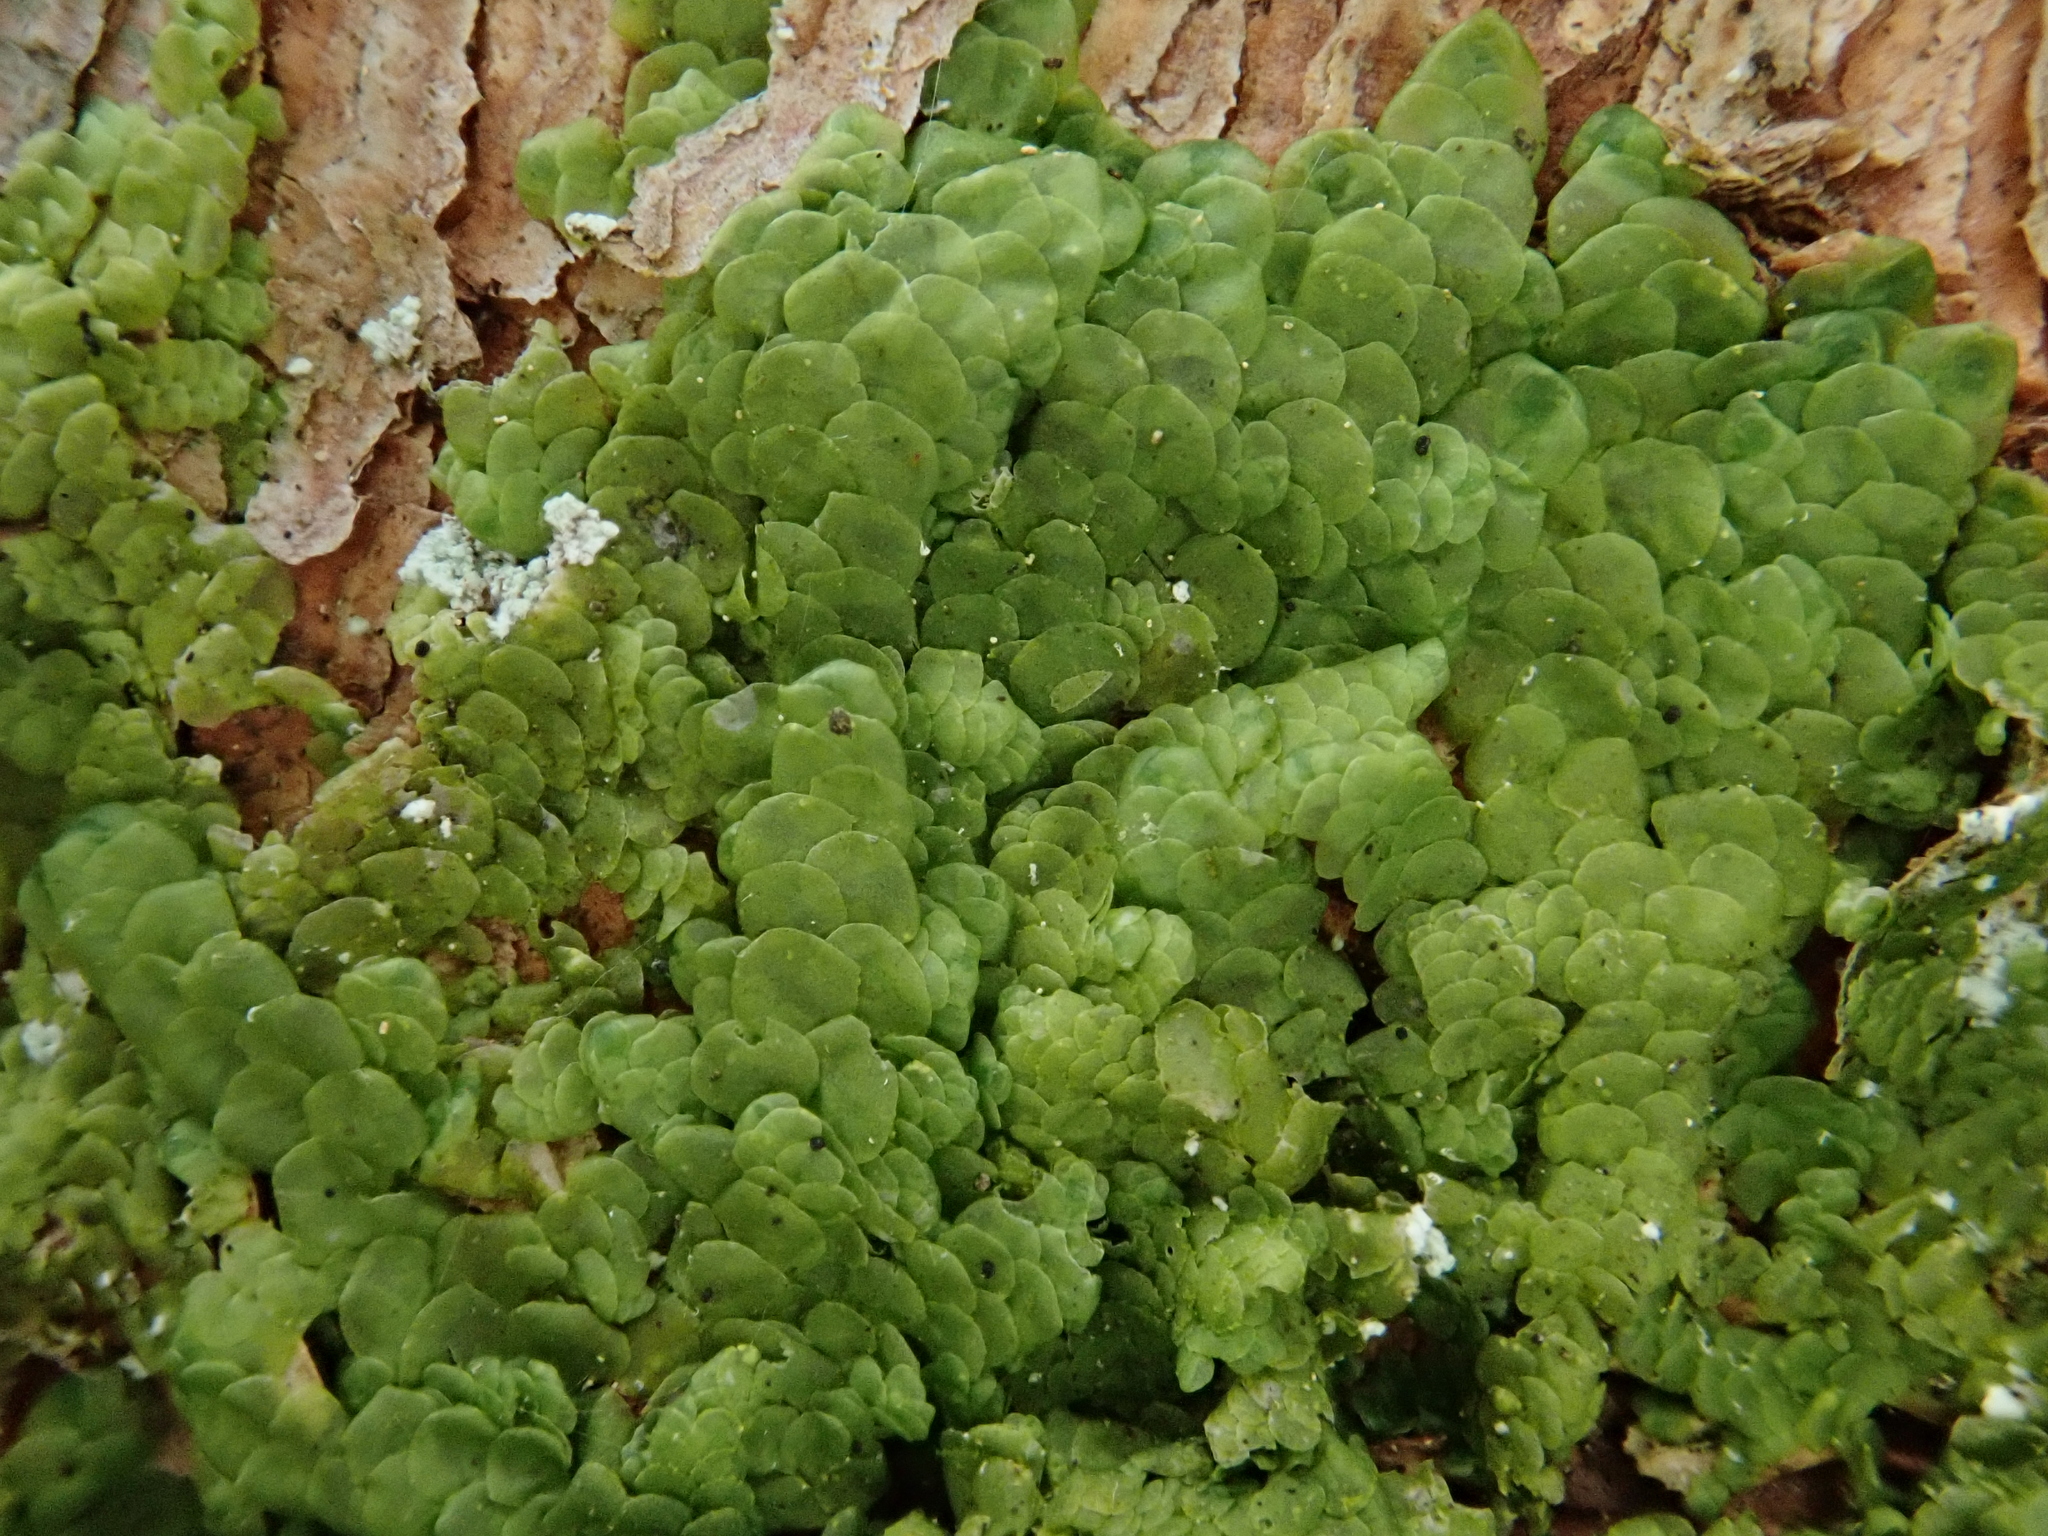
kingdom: Plantae
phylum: Marchantiophyta
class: Jungermanniopsida
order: Porellales
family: Radulaceae
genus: Radula
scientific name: Radula complanata
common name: Flat-leaved scalewort
